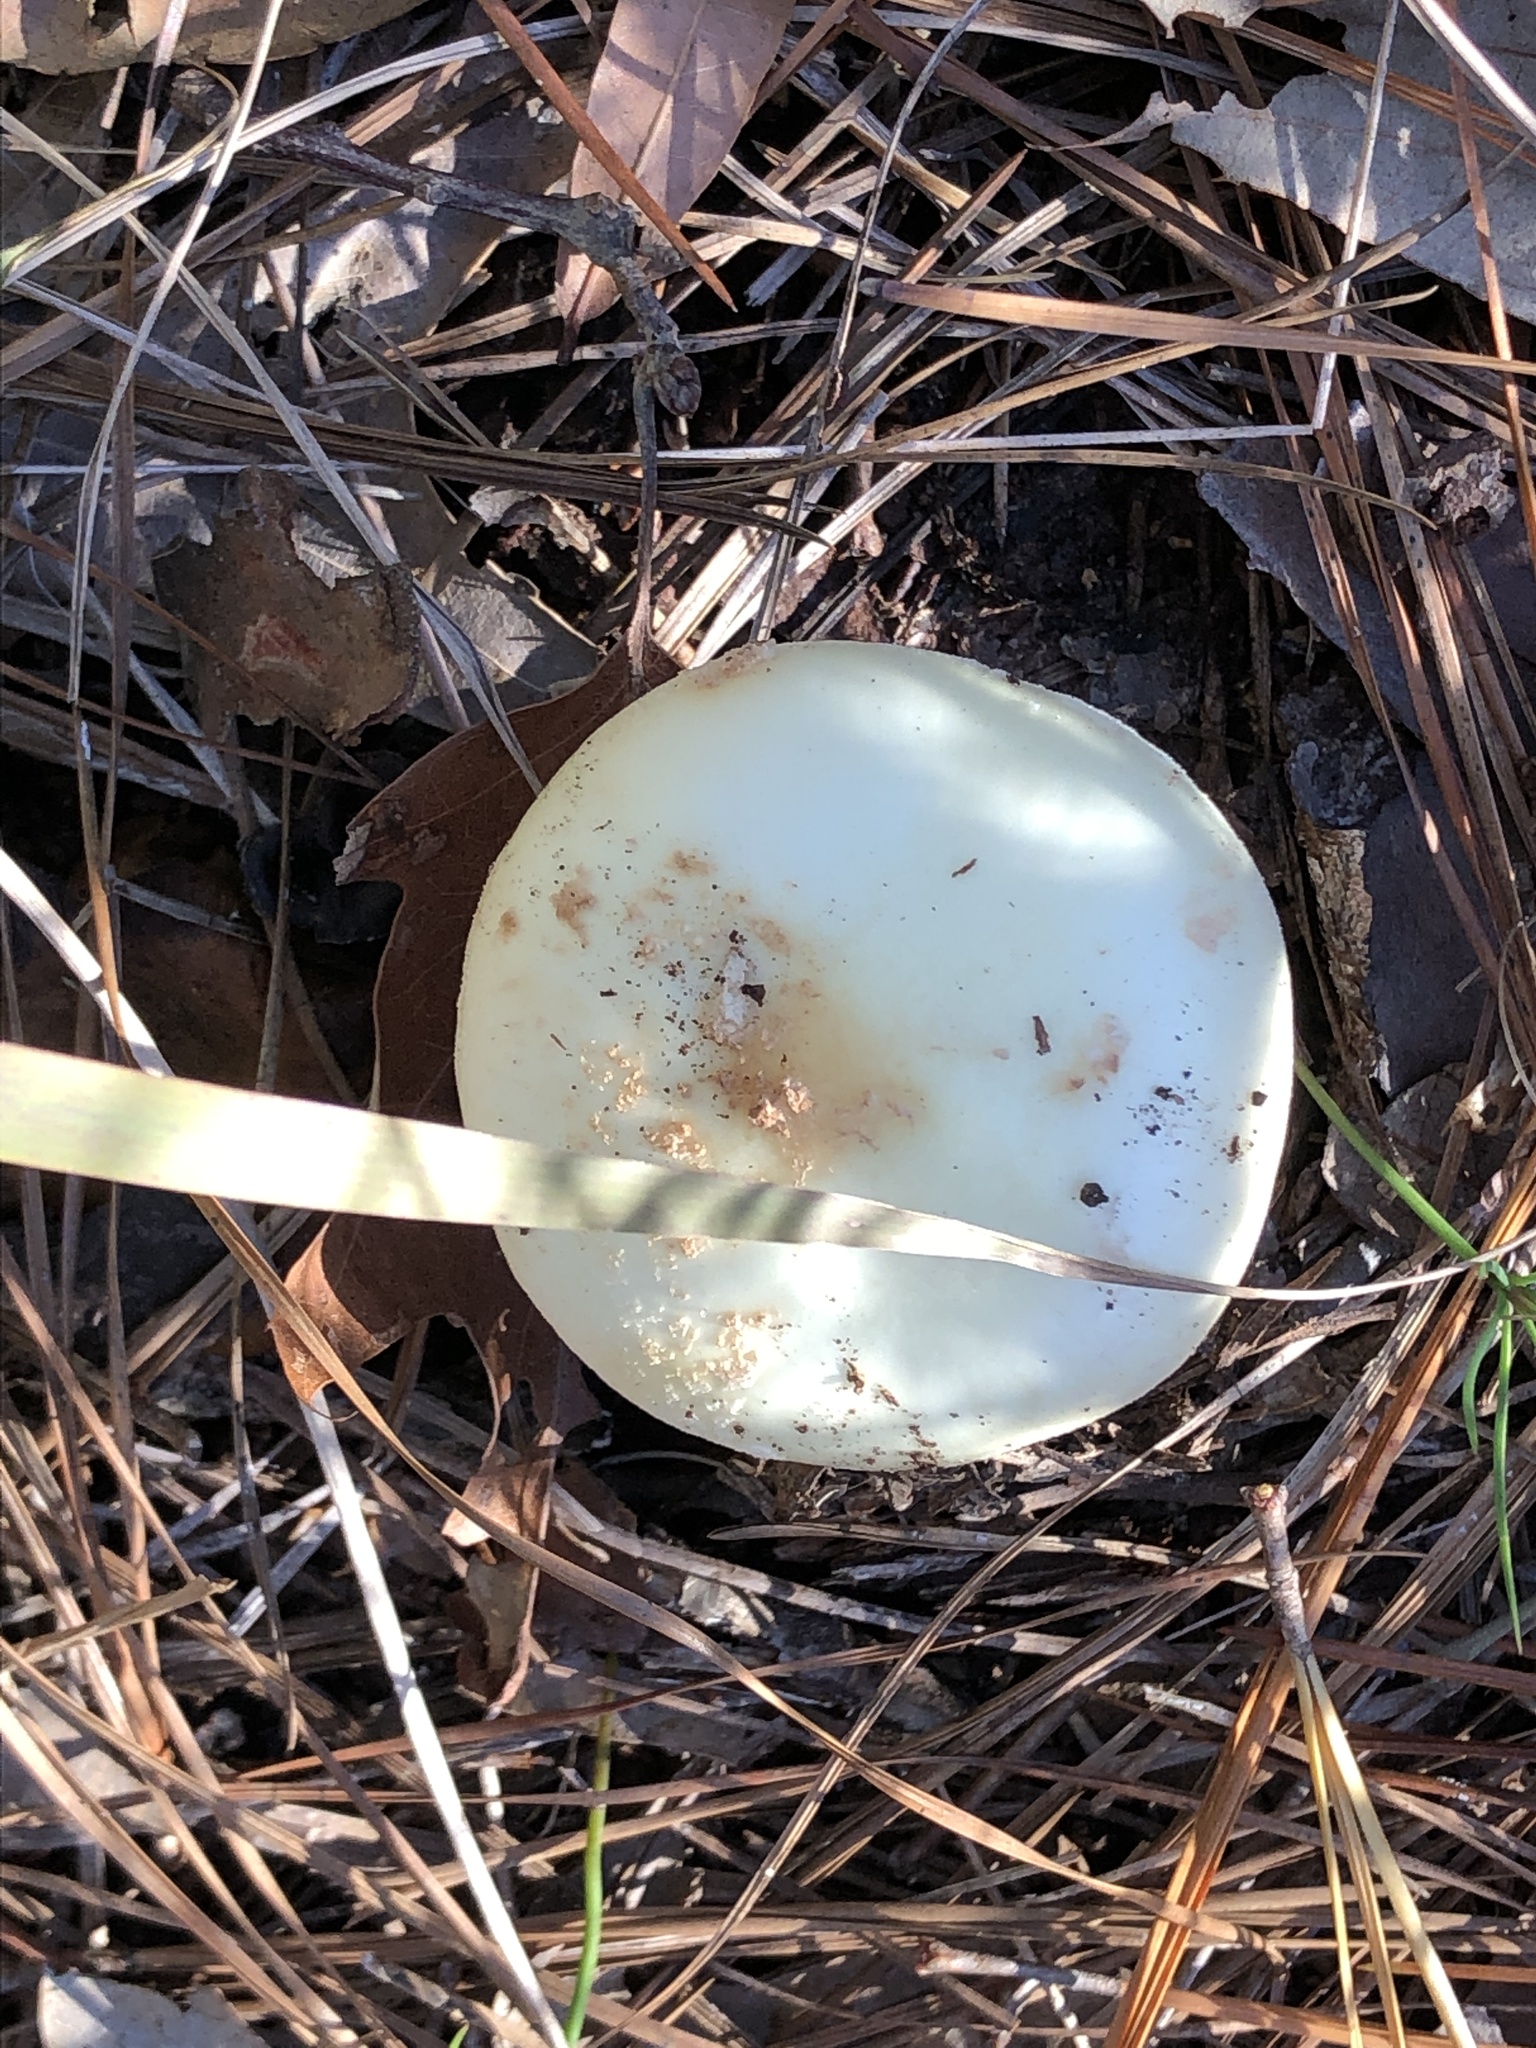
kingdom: Fungi
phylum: Basidiomycota
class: Agaricomycetes
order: Agaricales
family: Amanitaceae
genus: Amanita
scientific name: Amanita lavendula
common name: Coker's lavender staining amanita
